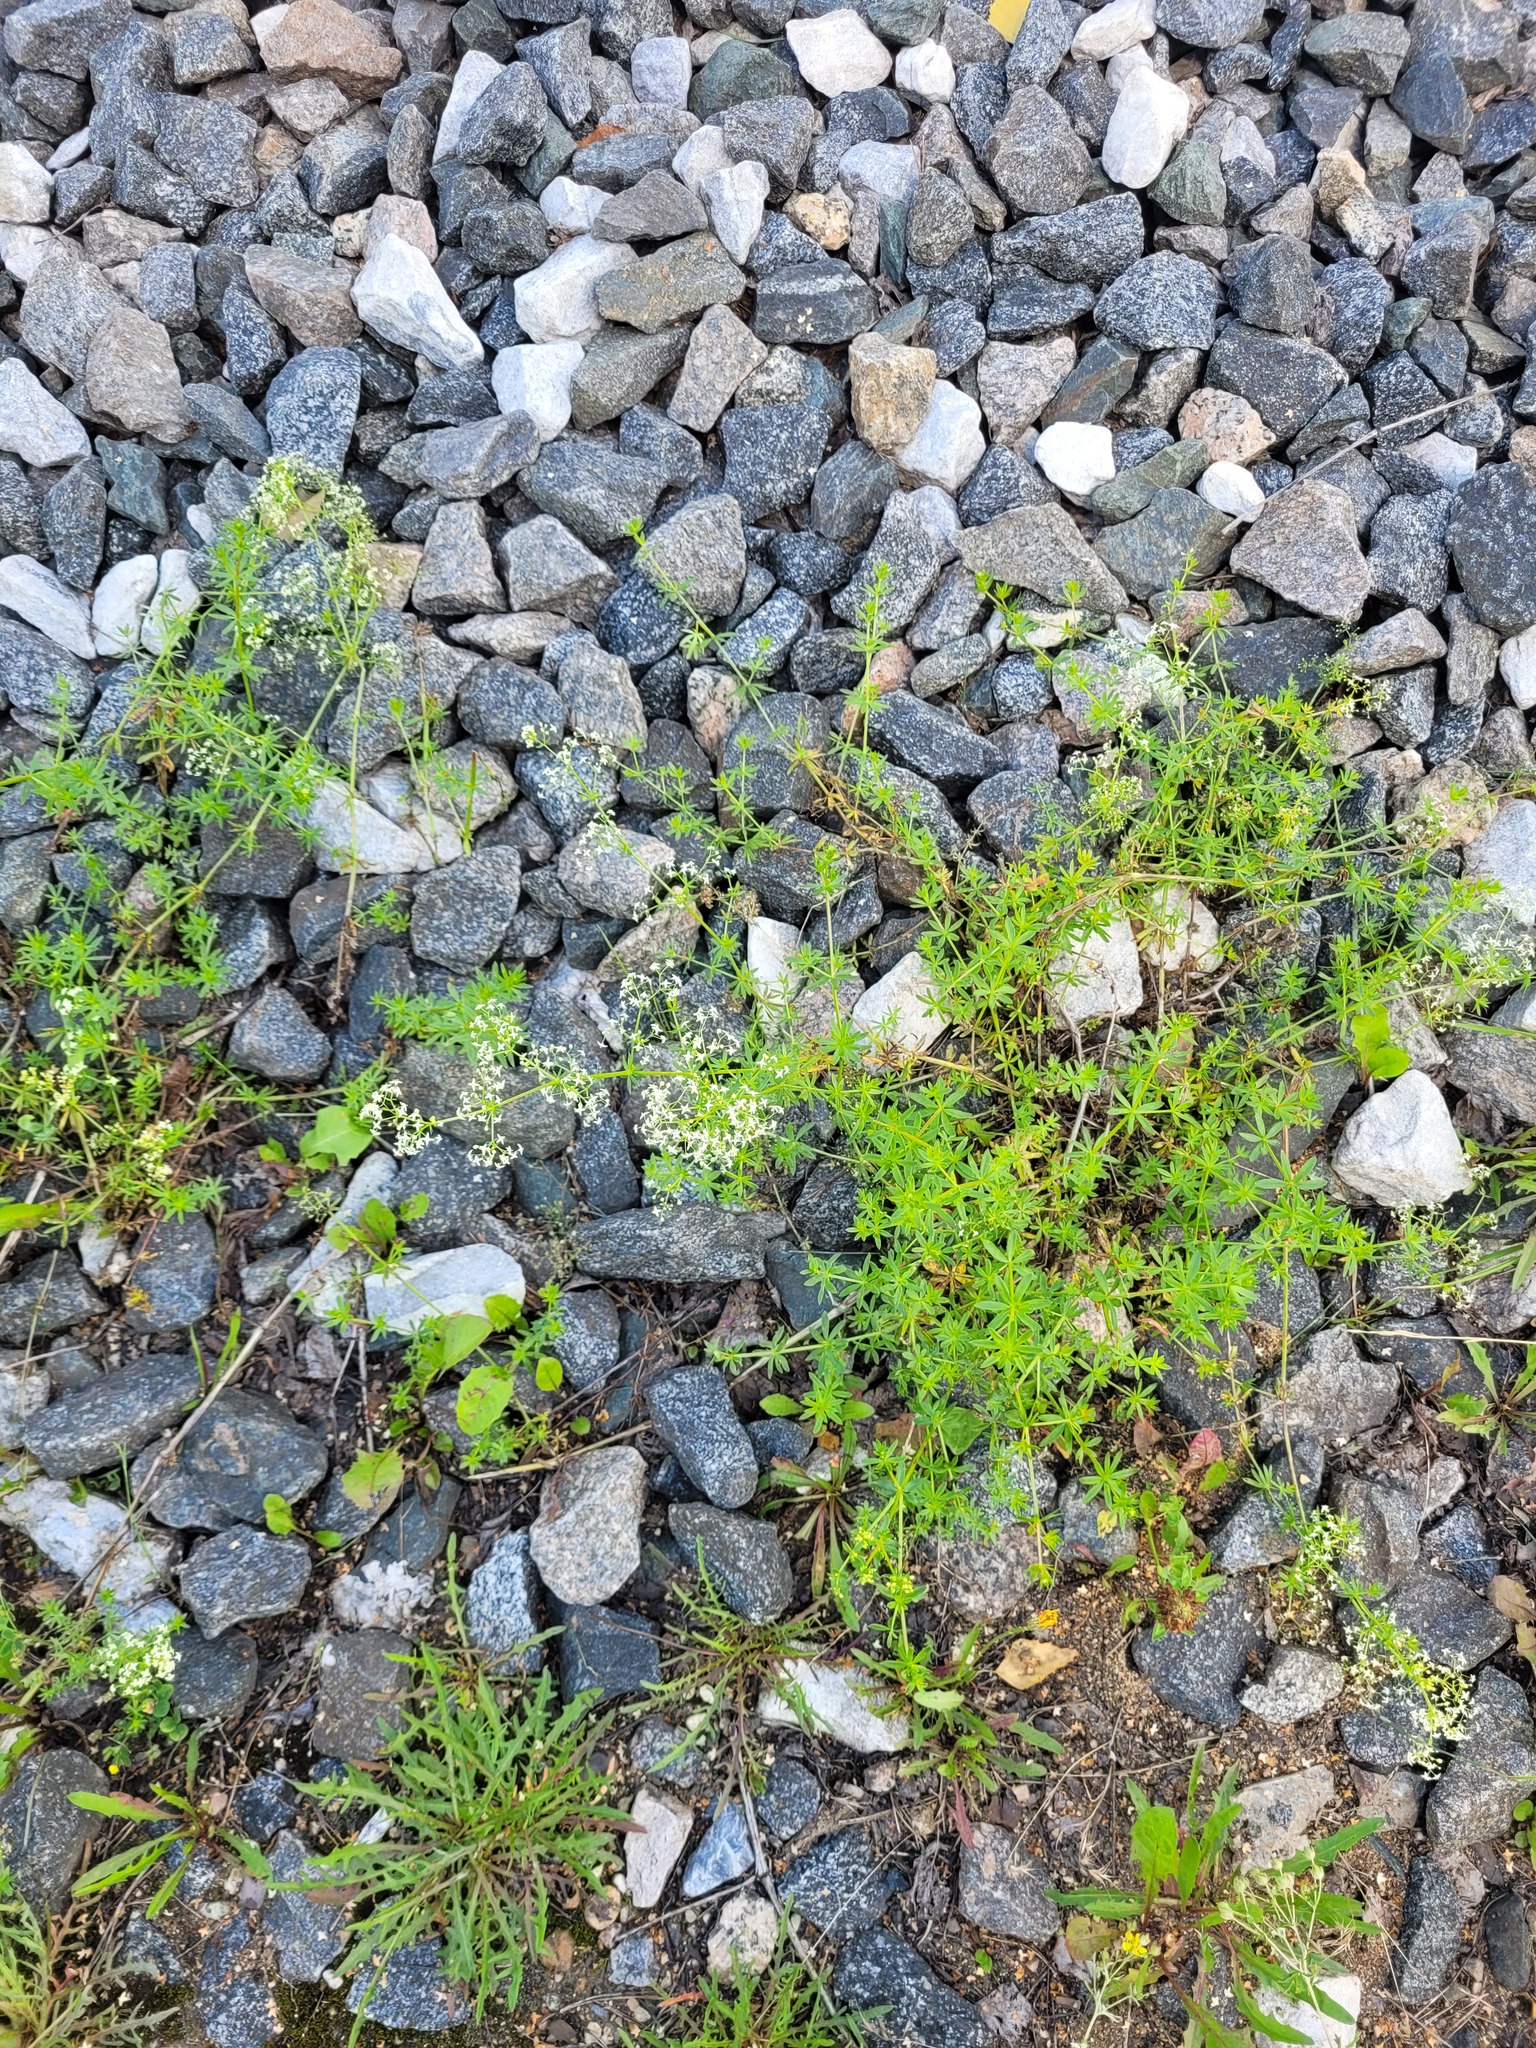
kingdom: Plantae
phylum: Tracheophyta
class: Magnoliopsida
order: Gentianales
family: Rubiaceae
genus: Galium
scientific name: Galium mollugo
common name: Hedge bedstraw
